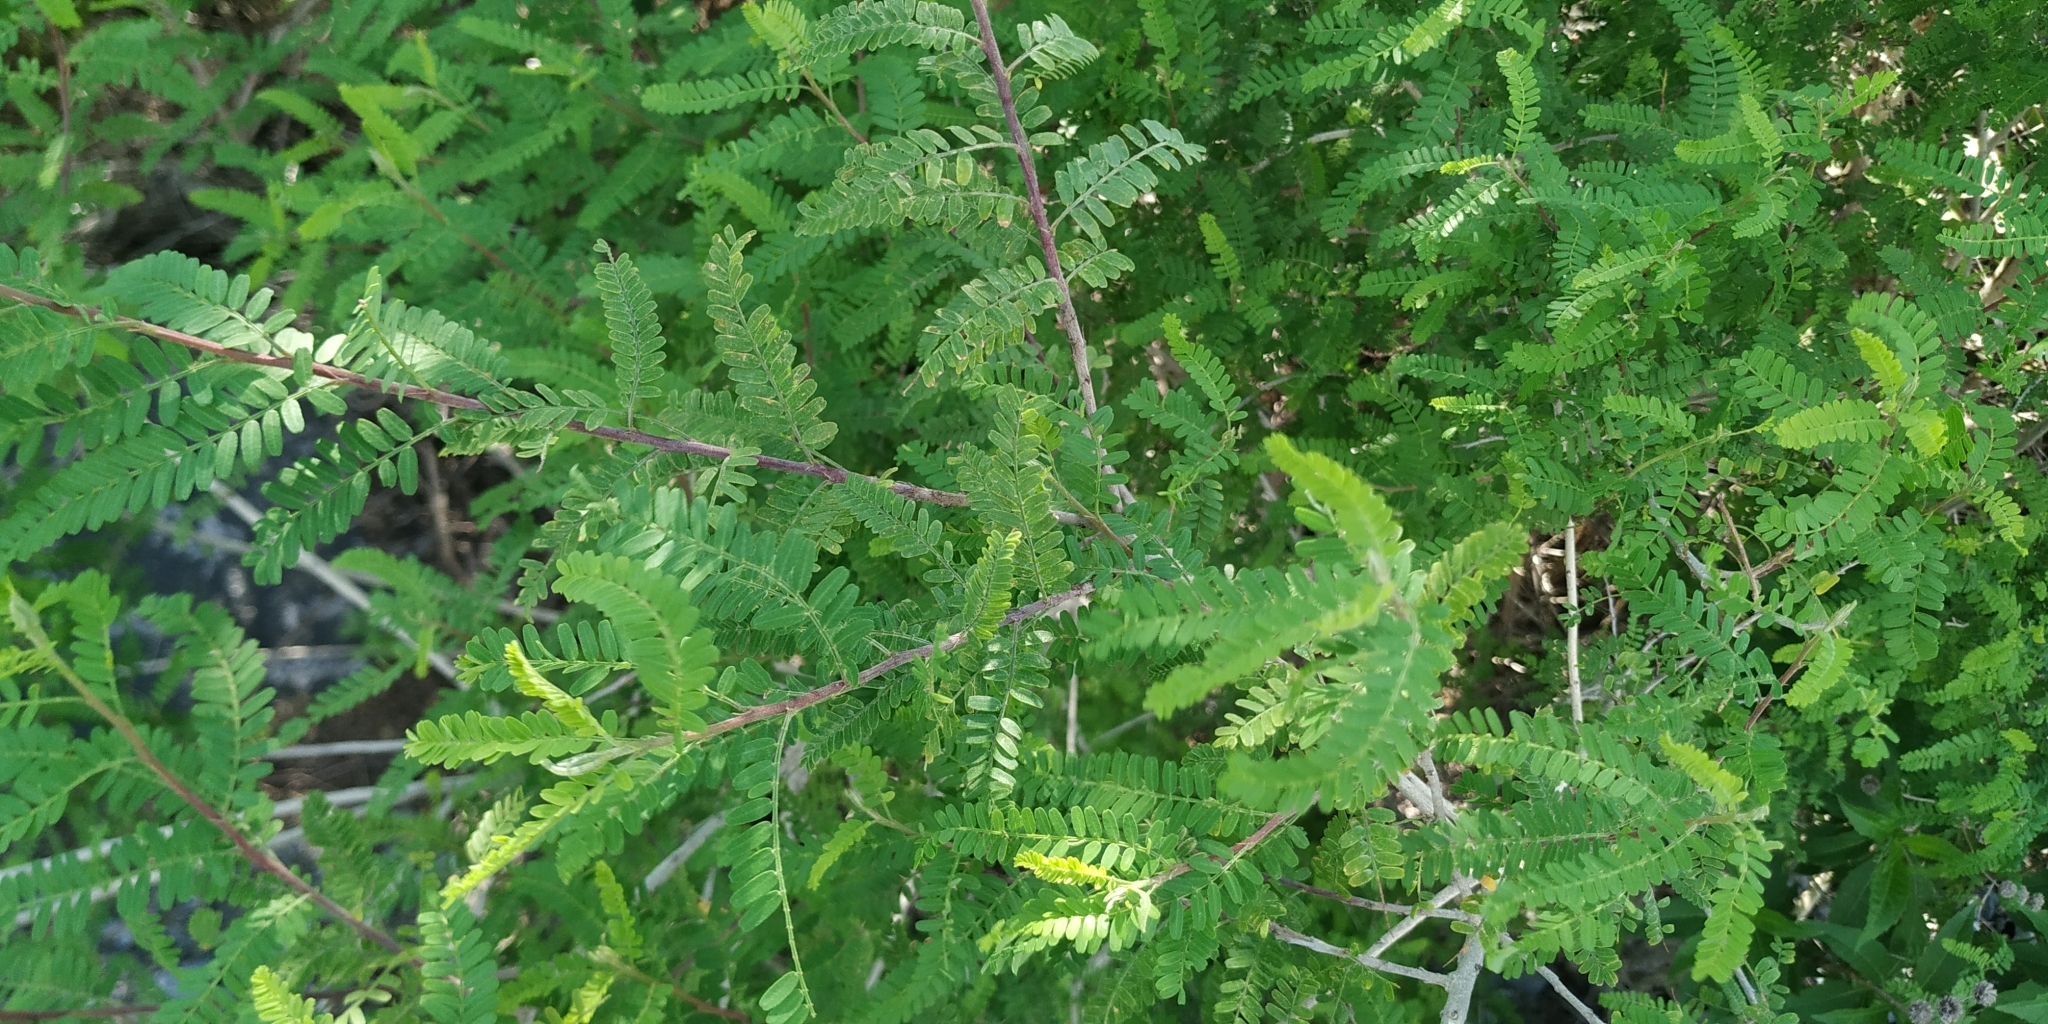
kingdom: Plantae
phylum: Tracheophyta
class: Magnoliopsida
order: Fabales
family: Fabaceae
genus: Eysenhardtia
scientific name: Eysenhardtia polystachya
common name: Kidneywood
